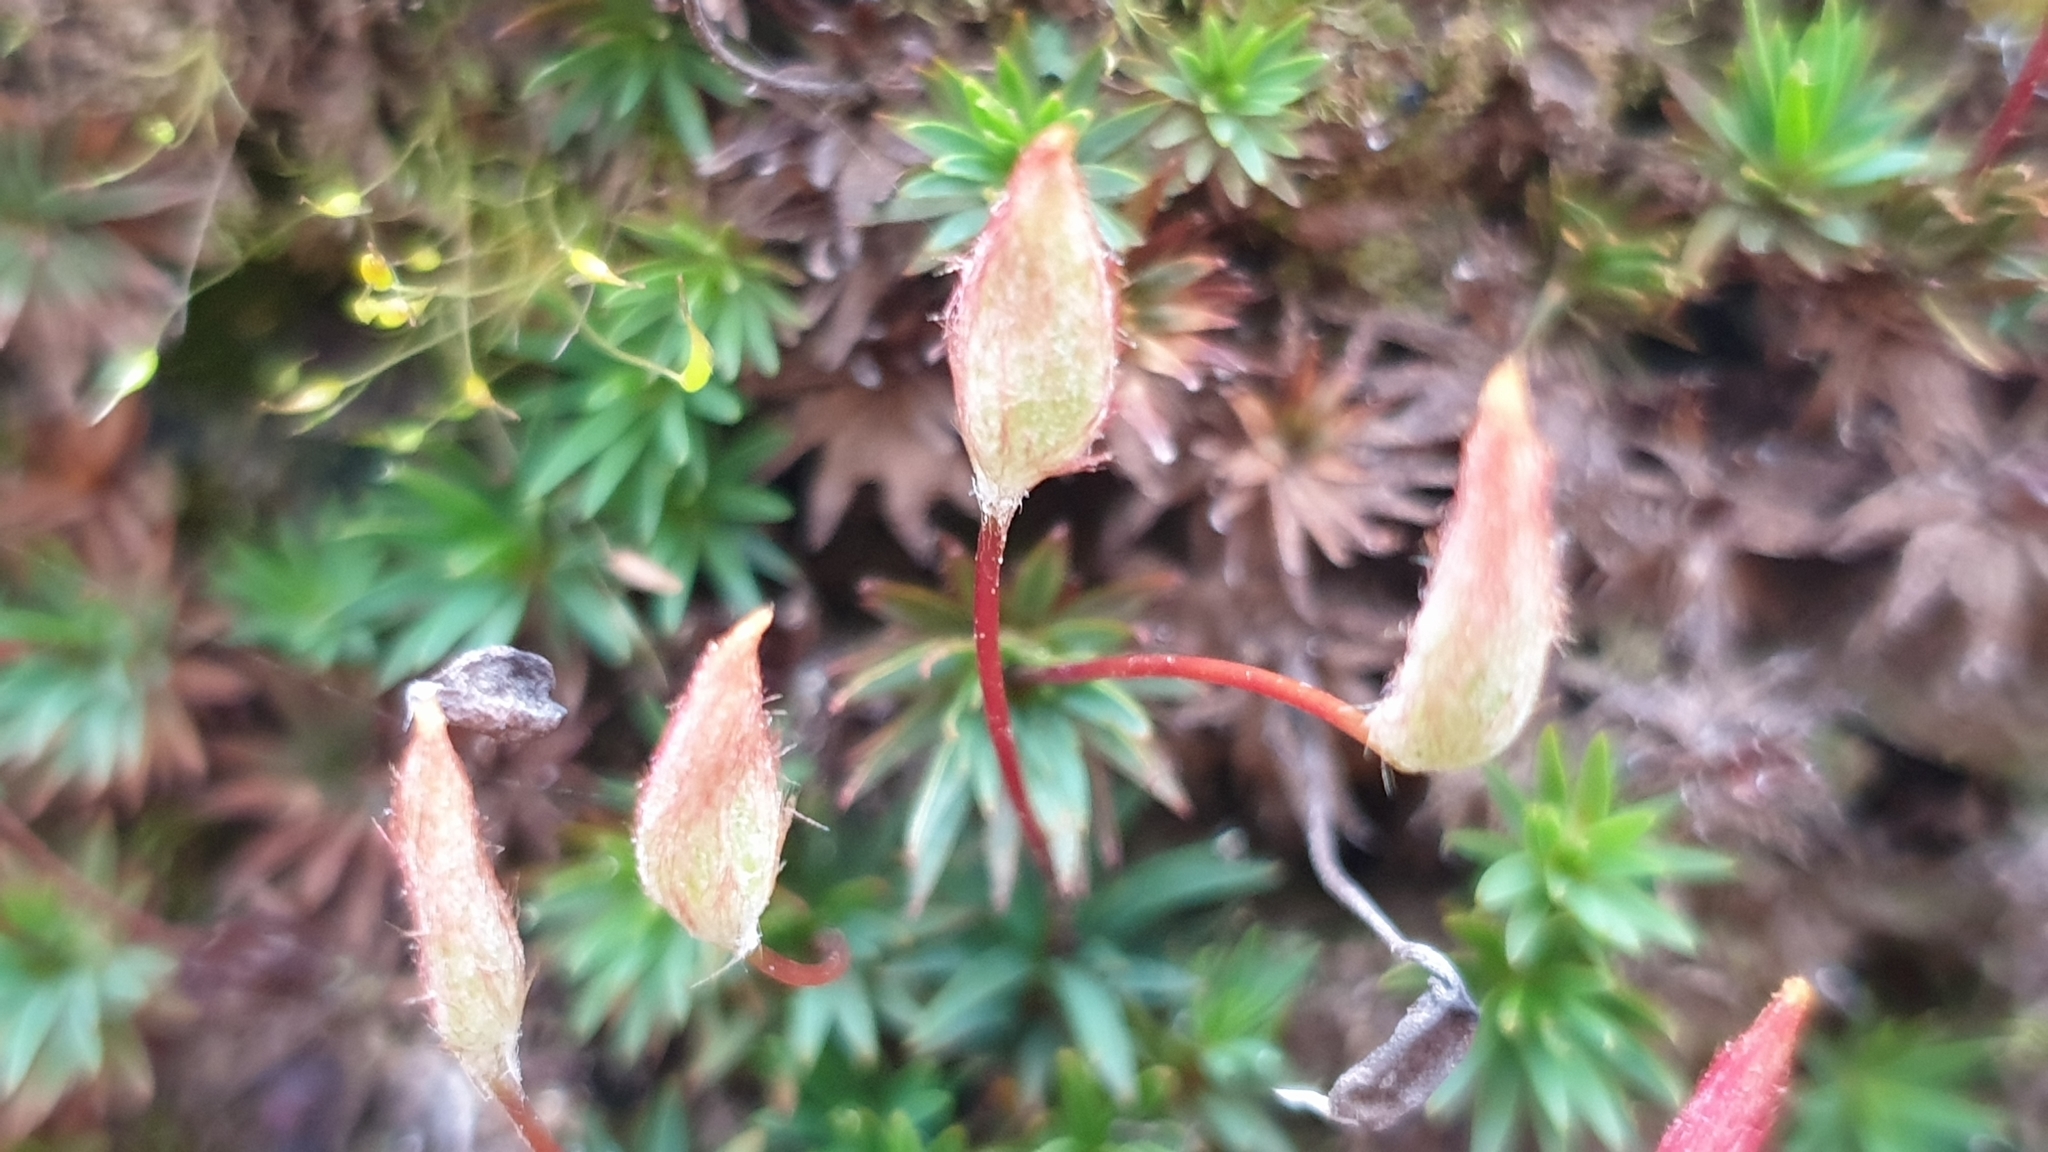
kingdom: Plantae
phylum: Bryophyta
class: Polytrichopsida
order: Polytrichales
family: Polytrichaceae
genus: Dawsonia
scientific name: Dawsonia longiseta
